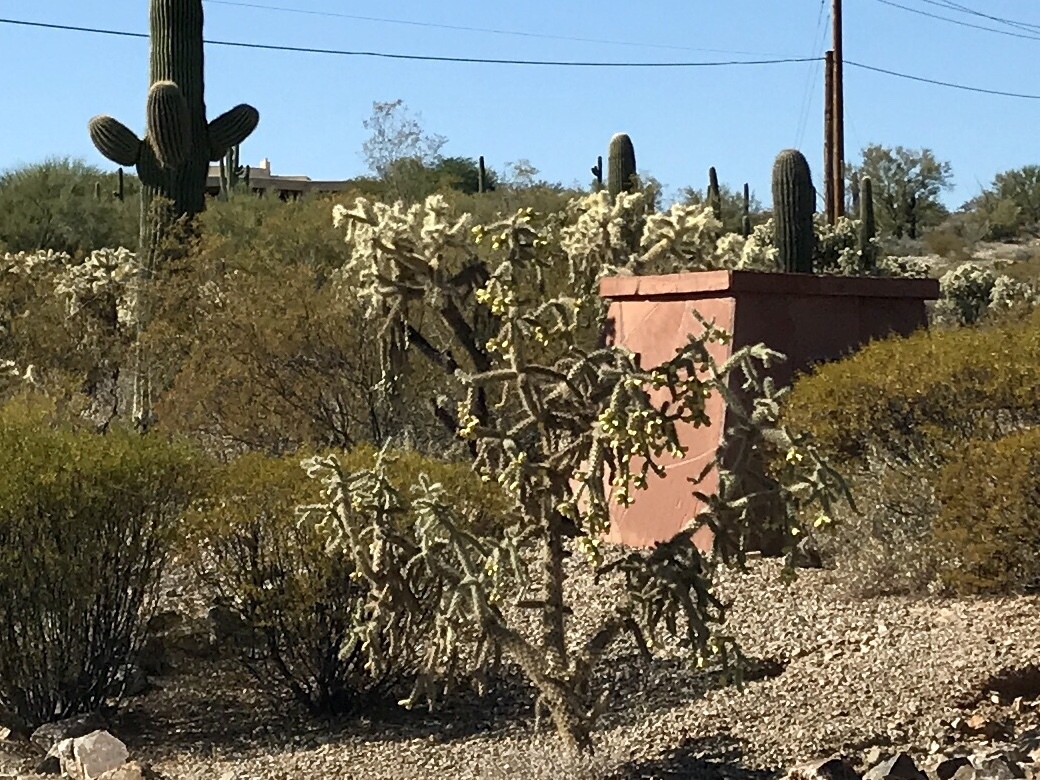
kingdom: Plantae
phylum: Tracheophyta
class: Magnoliopsida
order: Caryophyllales
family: Cactaceae
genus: Cylindropuntia
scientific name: Cylindropuntia imbricata
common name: Candelabrum cactus
